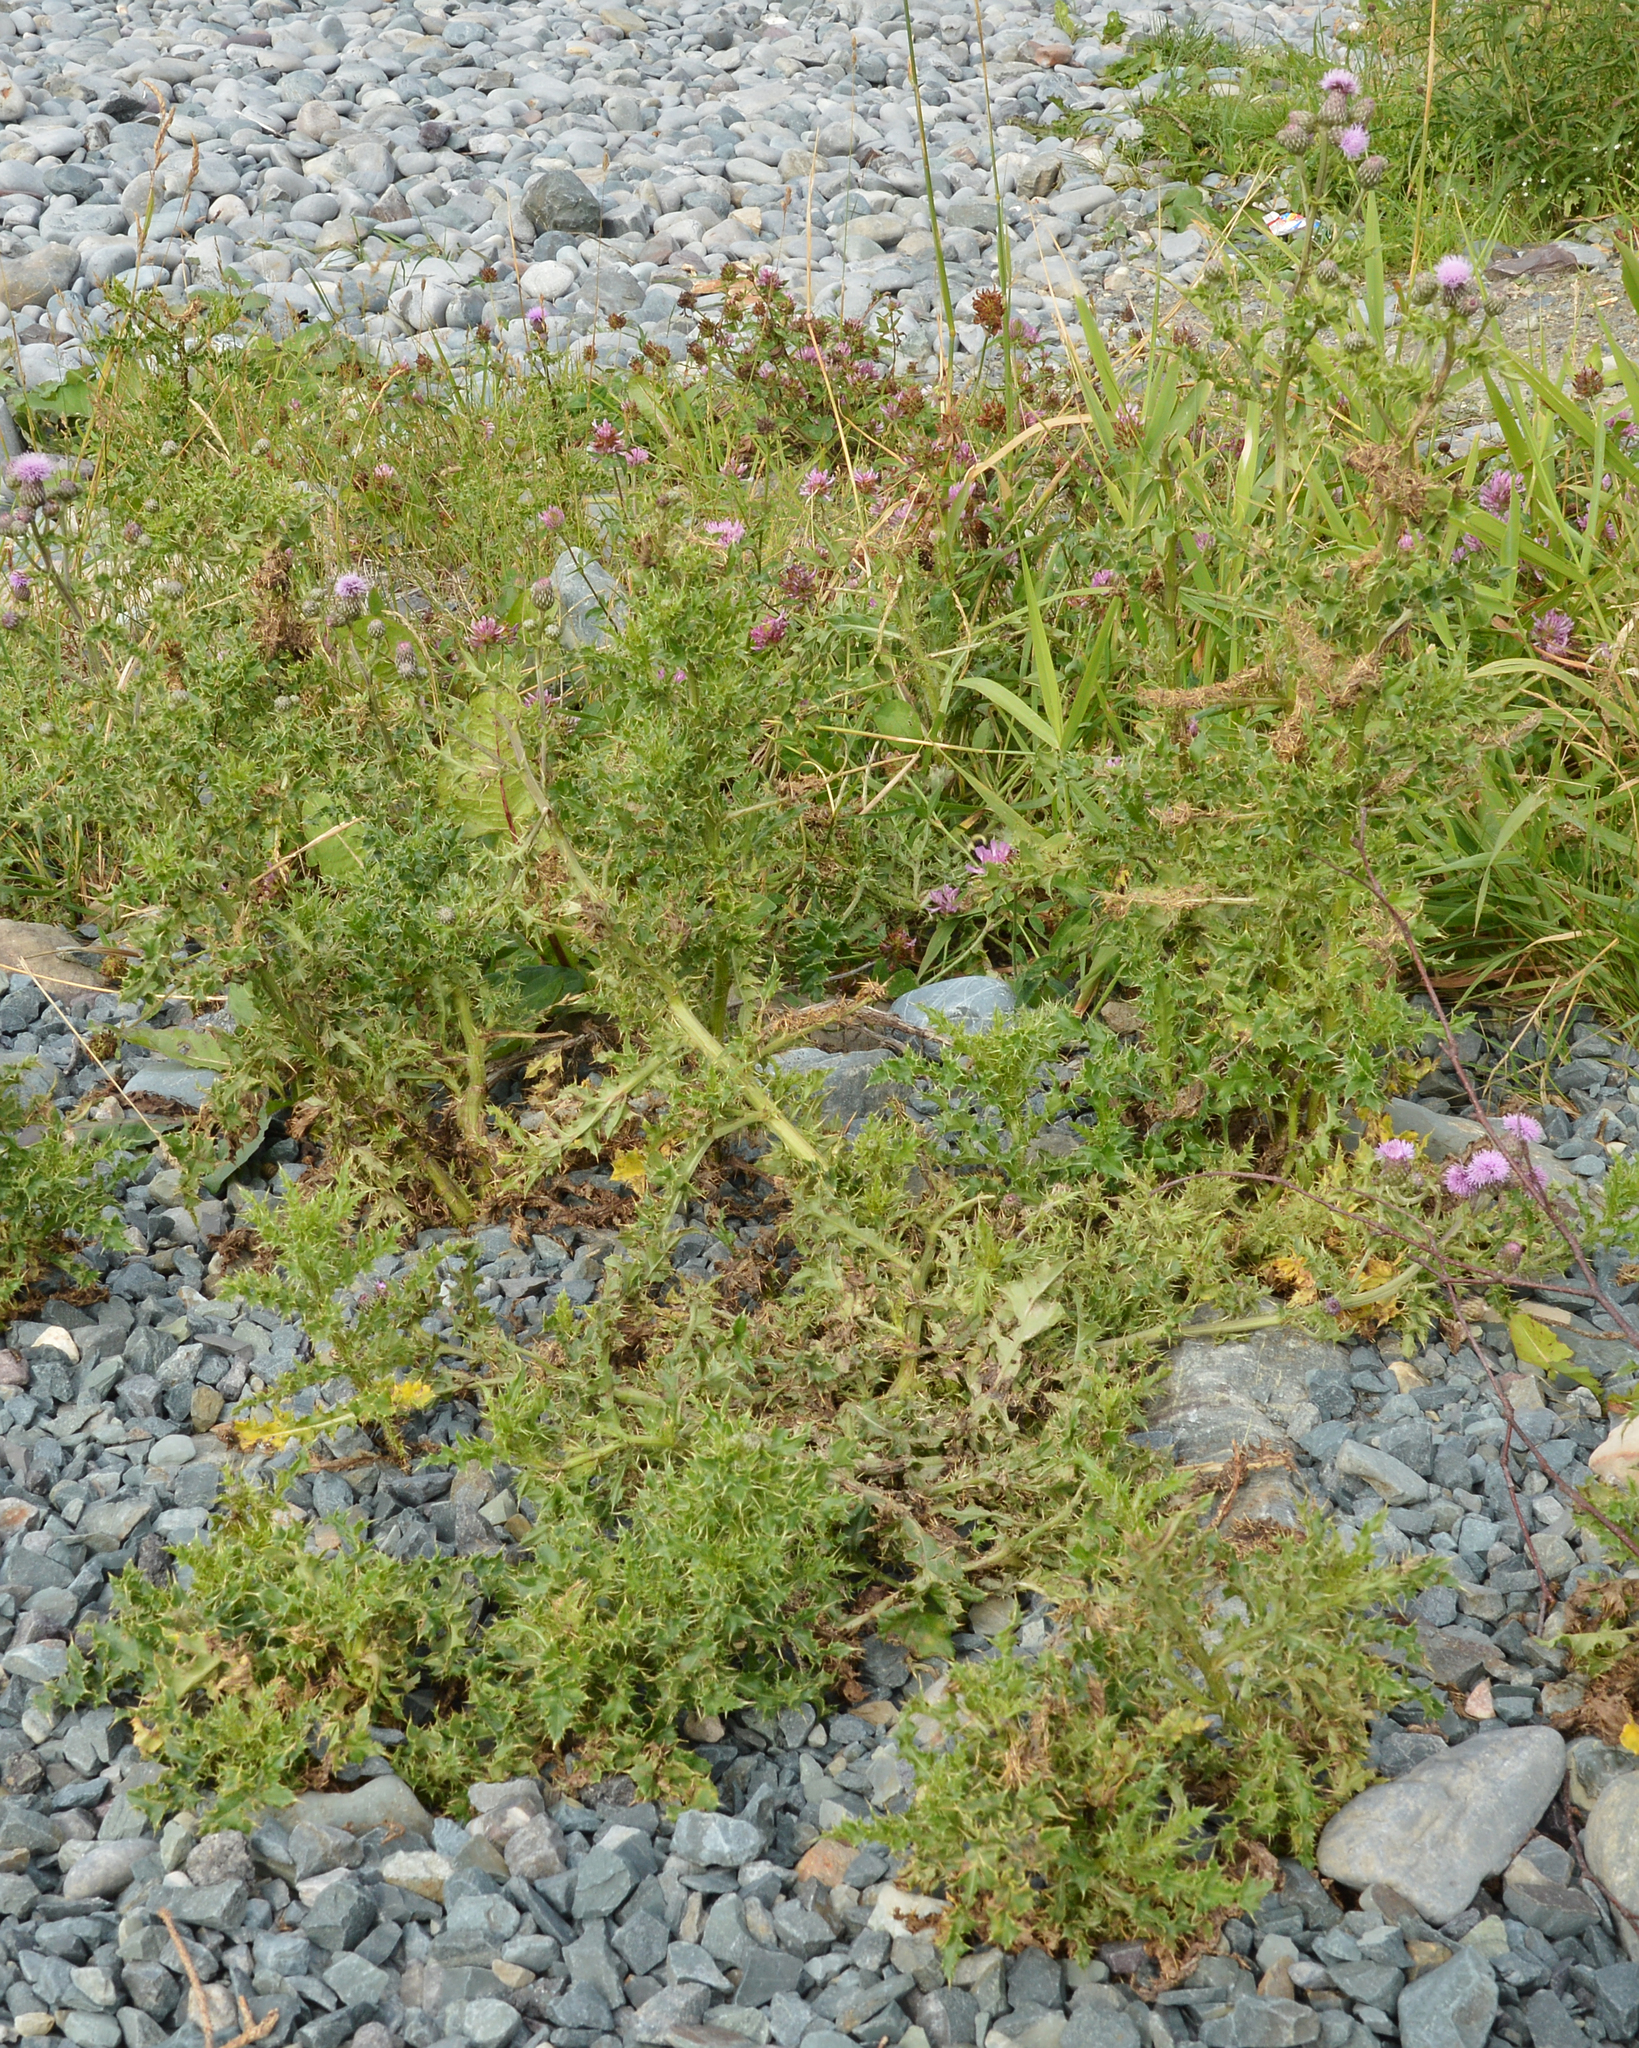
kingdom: Plantae
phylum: Tracheophyta
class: Magnoliopsida
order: Asterales
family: Asteraceae
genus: Cirsium
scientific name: Cirsium arvense
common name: Creeping thistle
